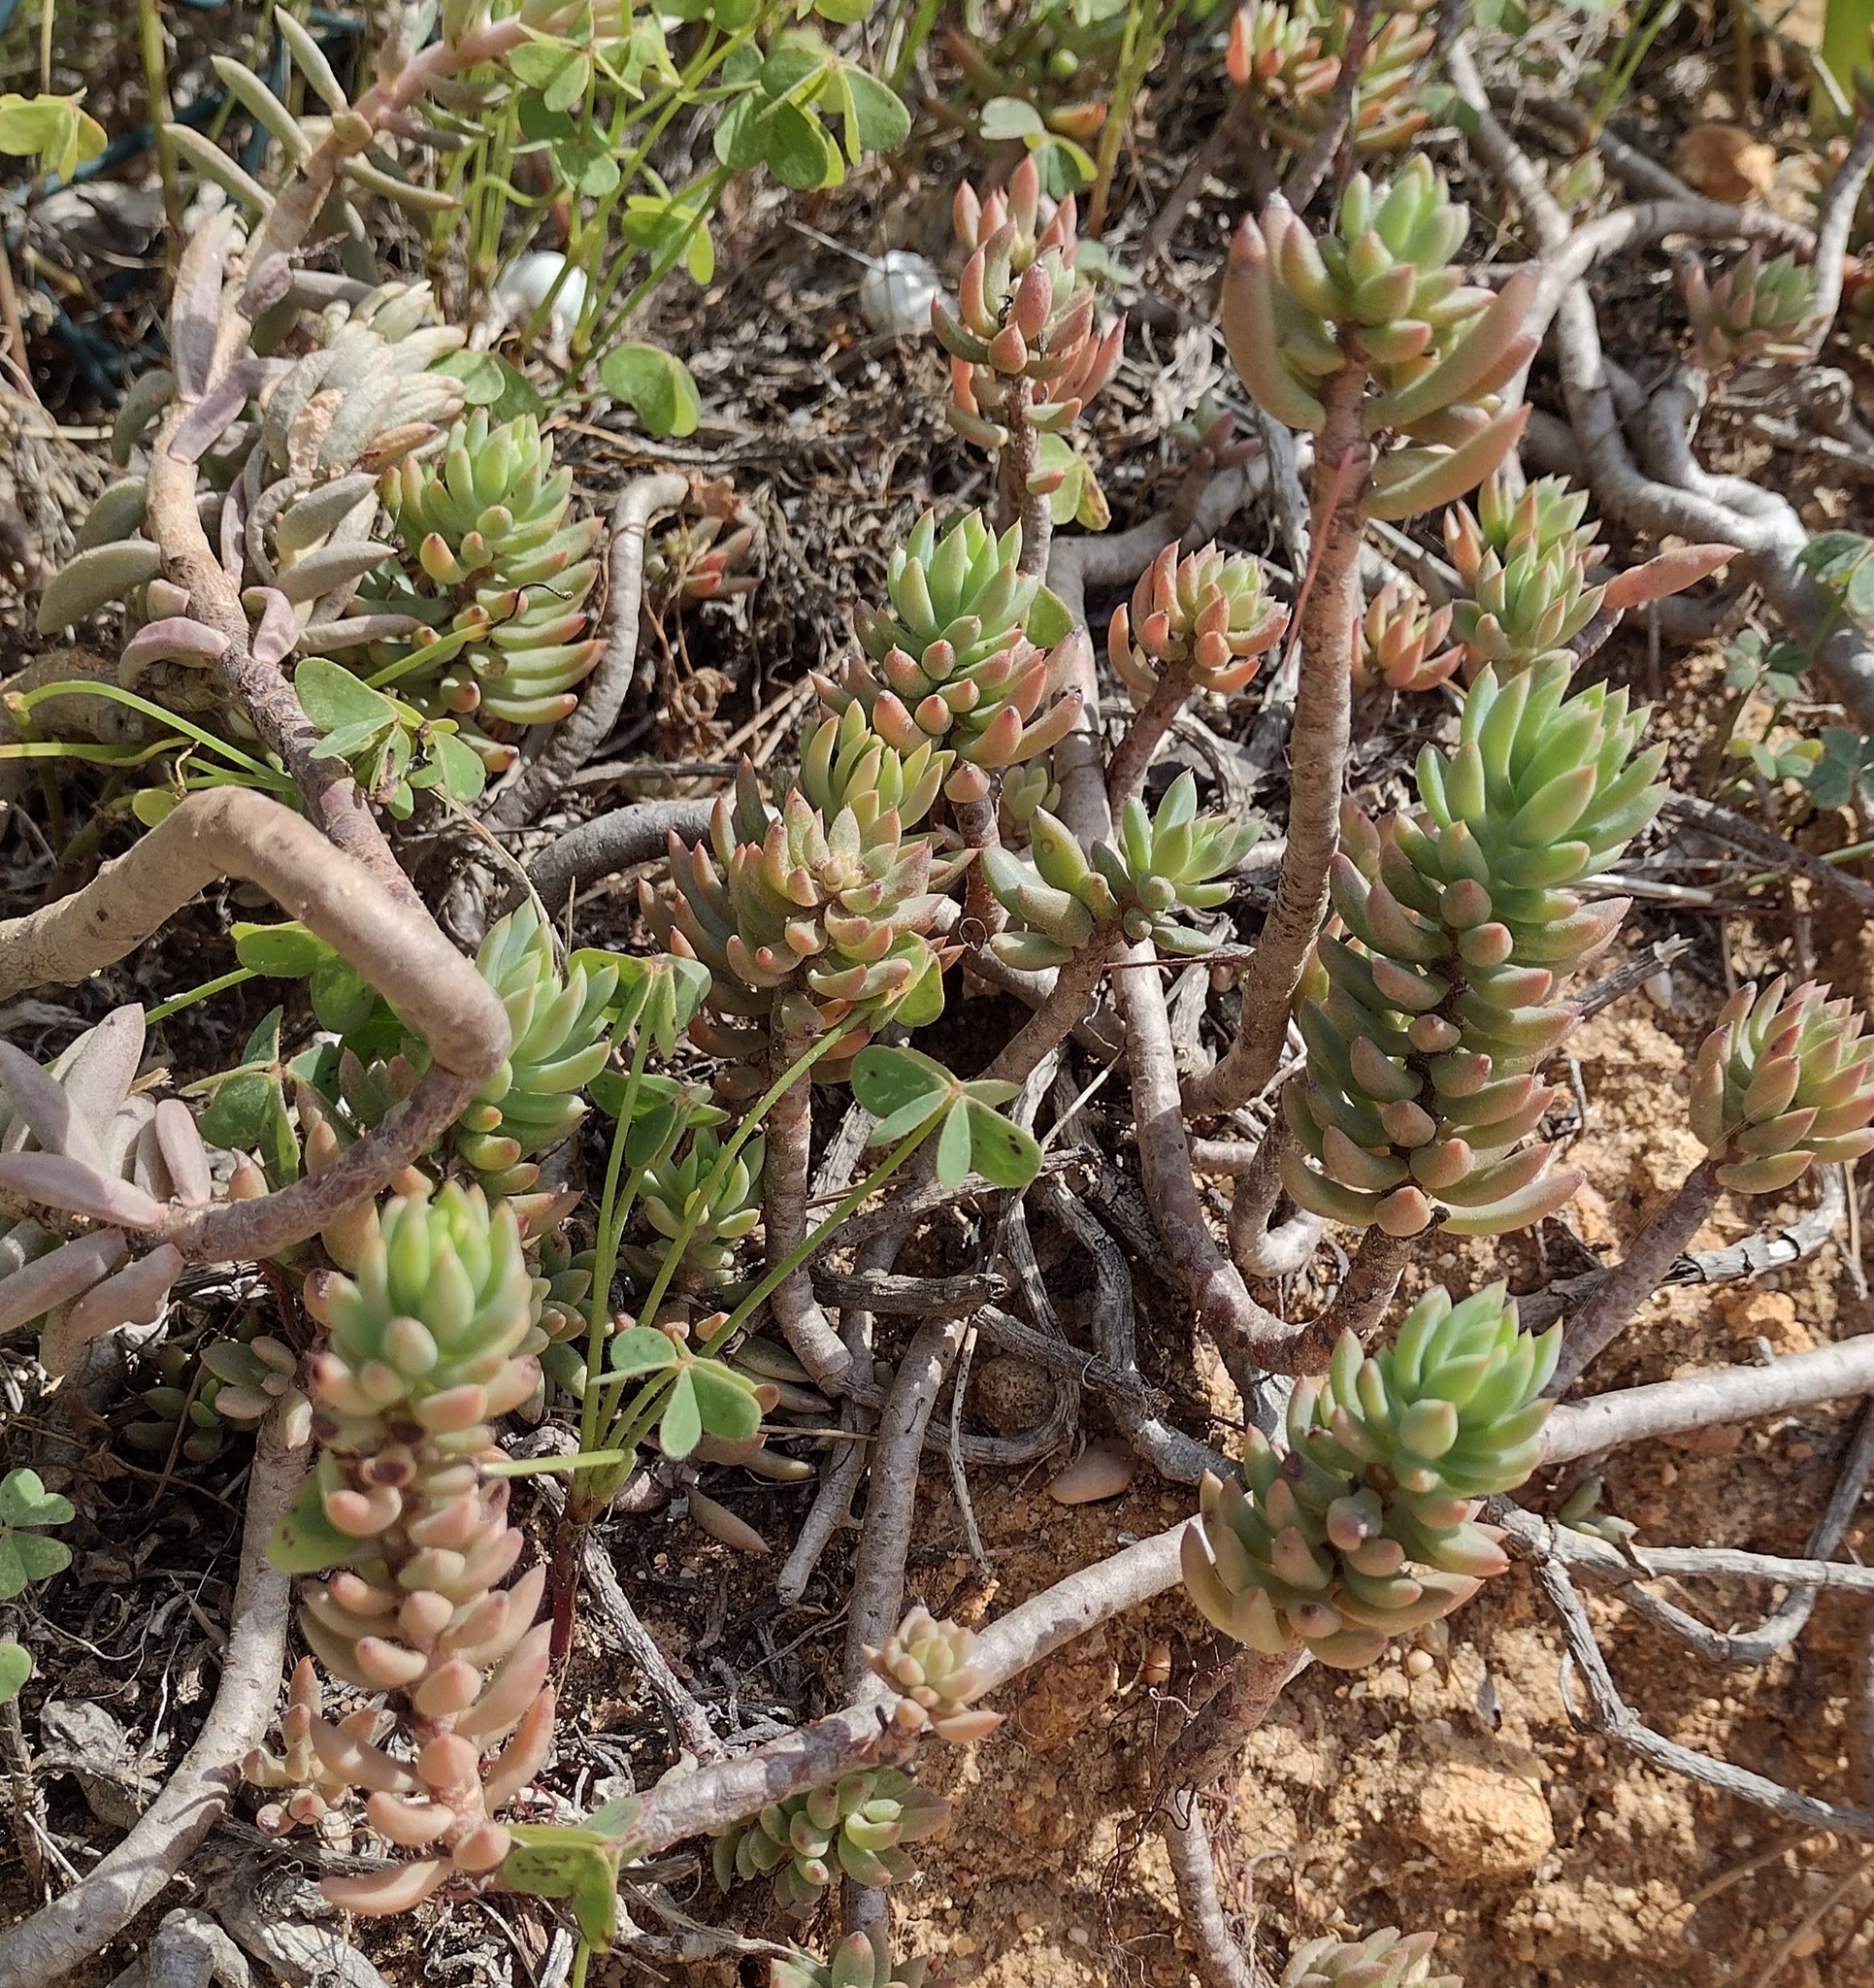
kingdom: Plantae
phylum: Tracheophyta
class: Magnoliopsida
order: Saxifragales
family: Crassulaceae
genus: Petrosedum
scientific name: Petrosedum sediforme
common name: Pale stonecrop
